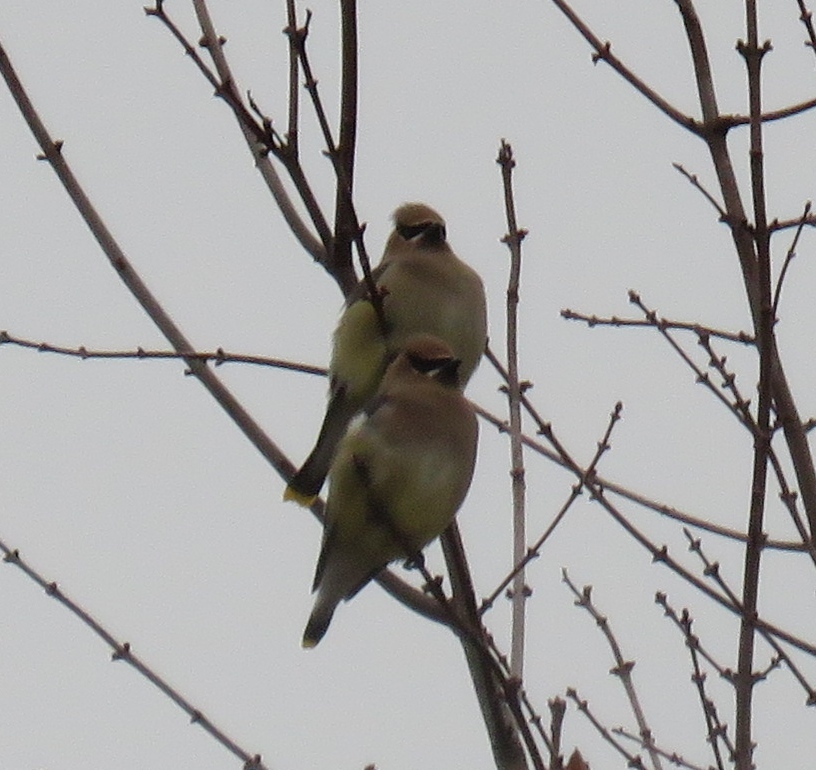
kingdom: Animalia
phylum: Chordata
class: Aves
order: Passeriformes
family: Bombycillidae
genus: Bombycilla
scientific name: Bombycilla cedrorum
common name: Cedar waxwing
